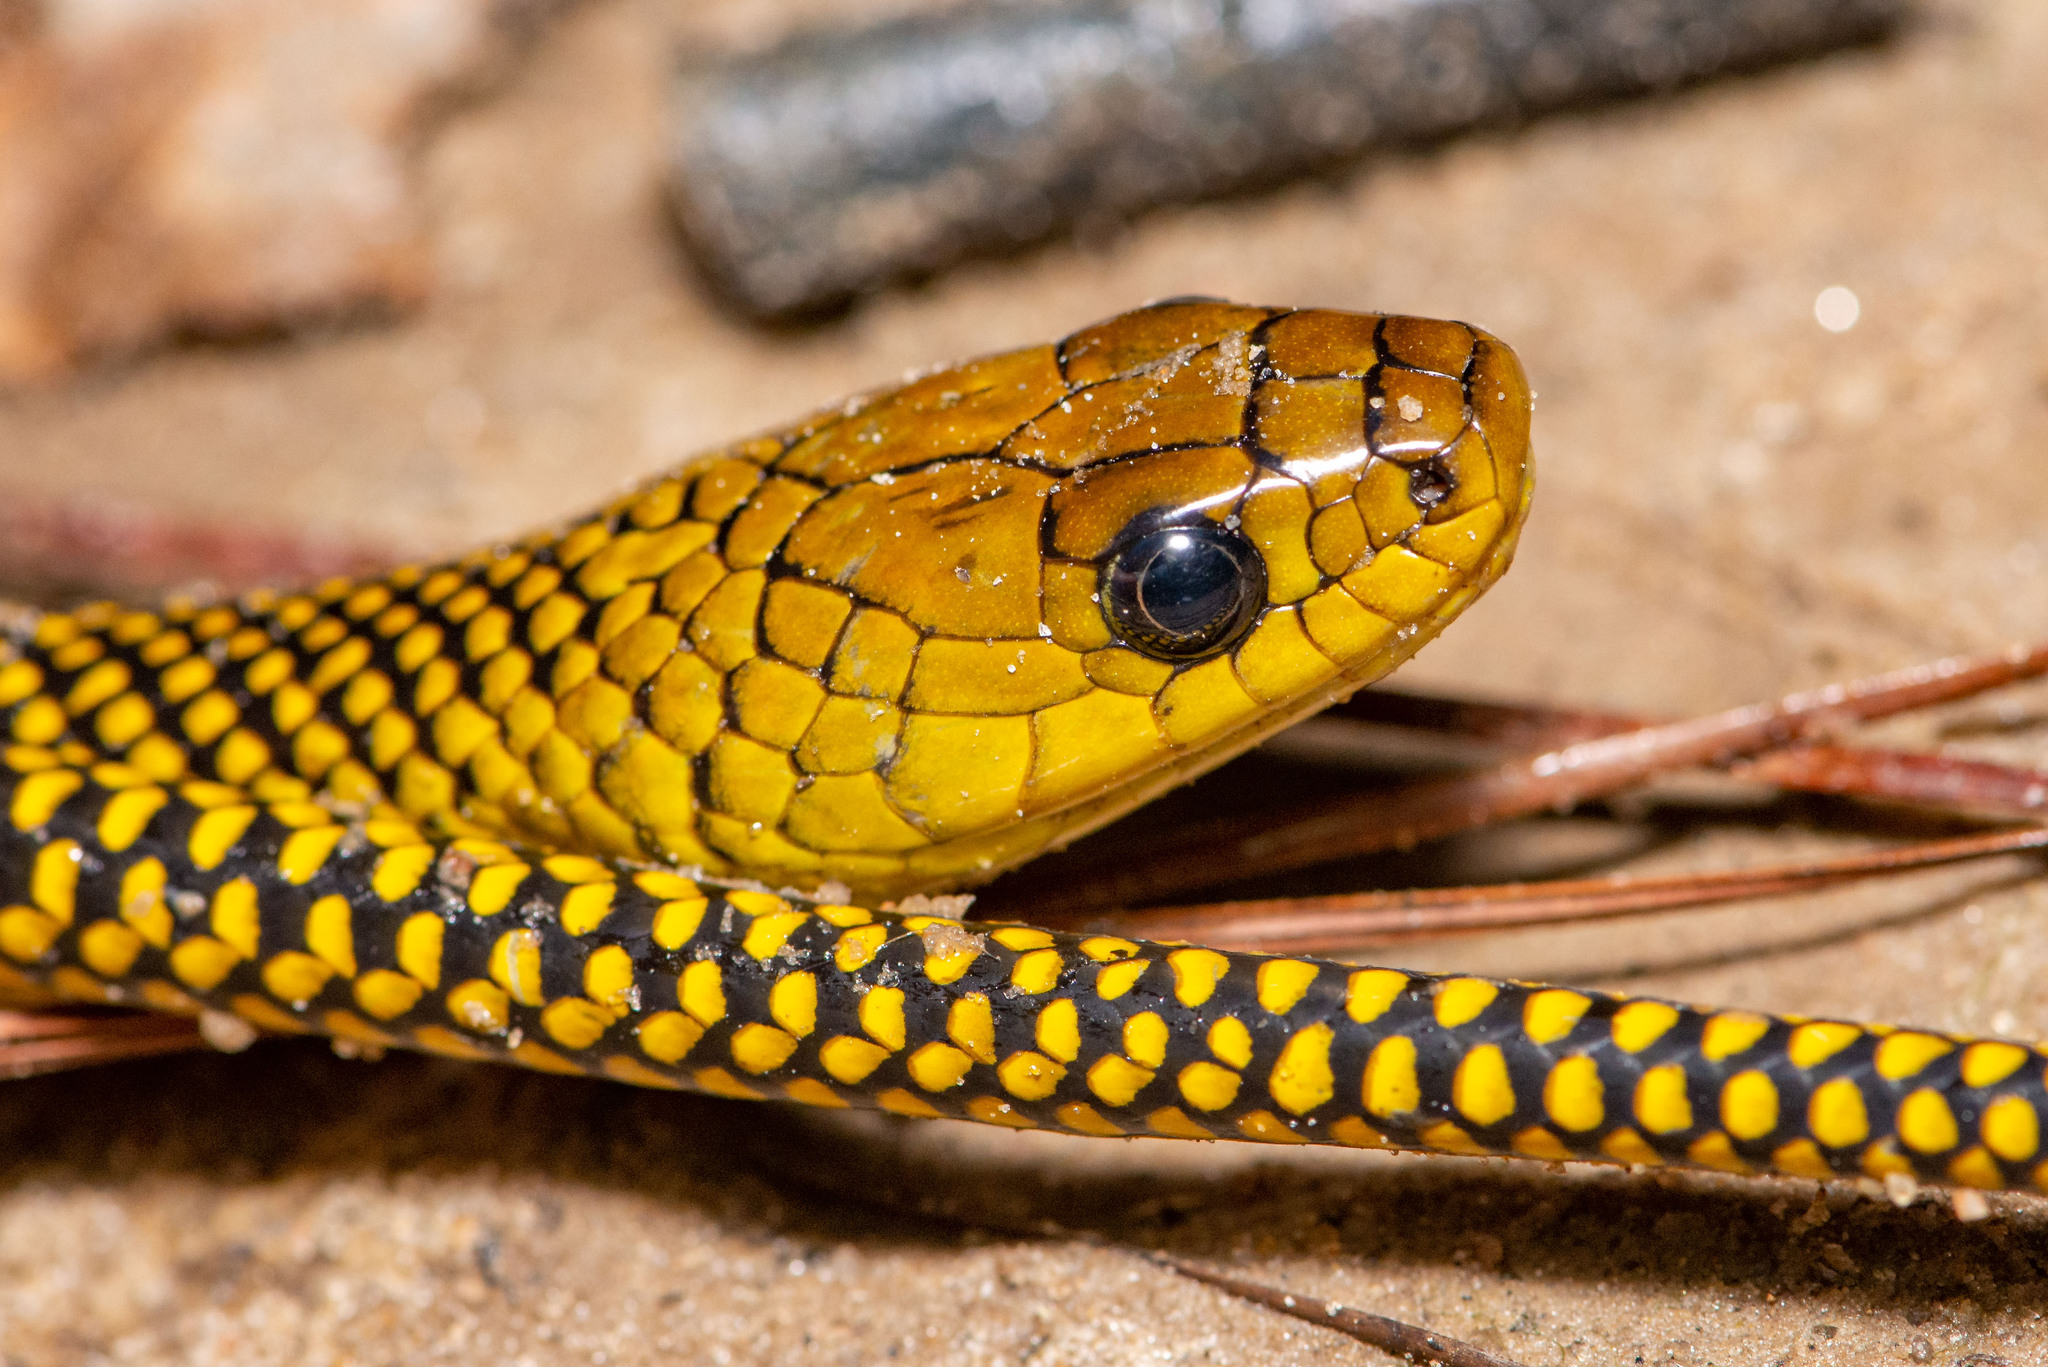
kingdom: Animalia
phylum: Chordata
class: Squamata
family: Colubridae
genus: Erythrolamprus
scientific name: Erythrolamprus miliaris
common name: Military ground snake
